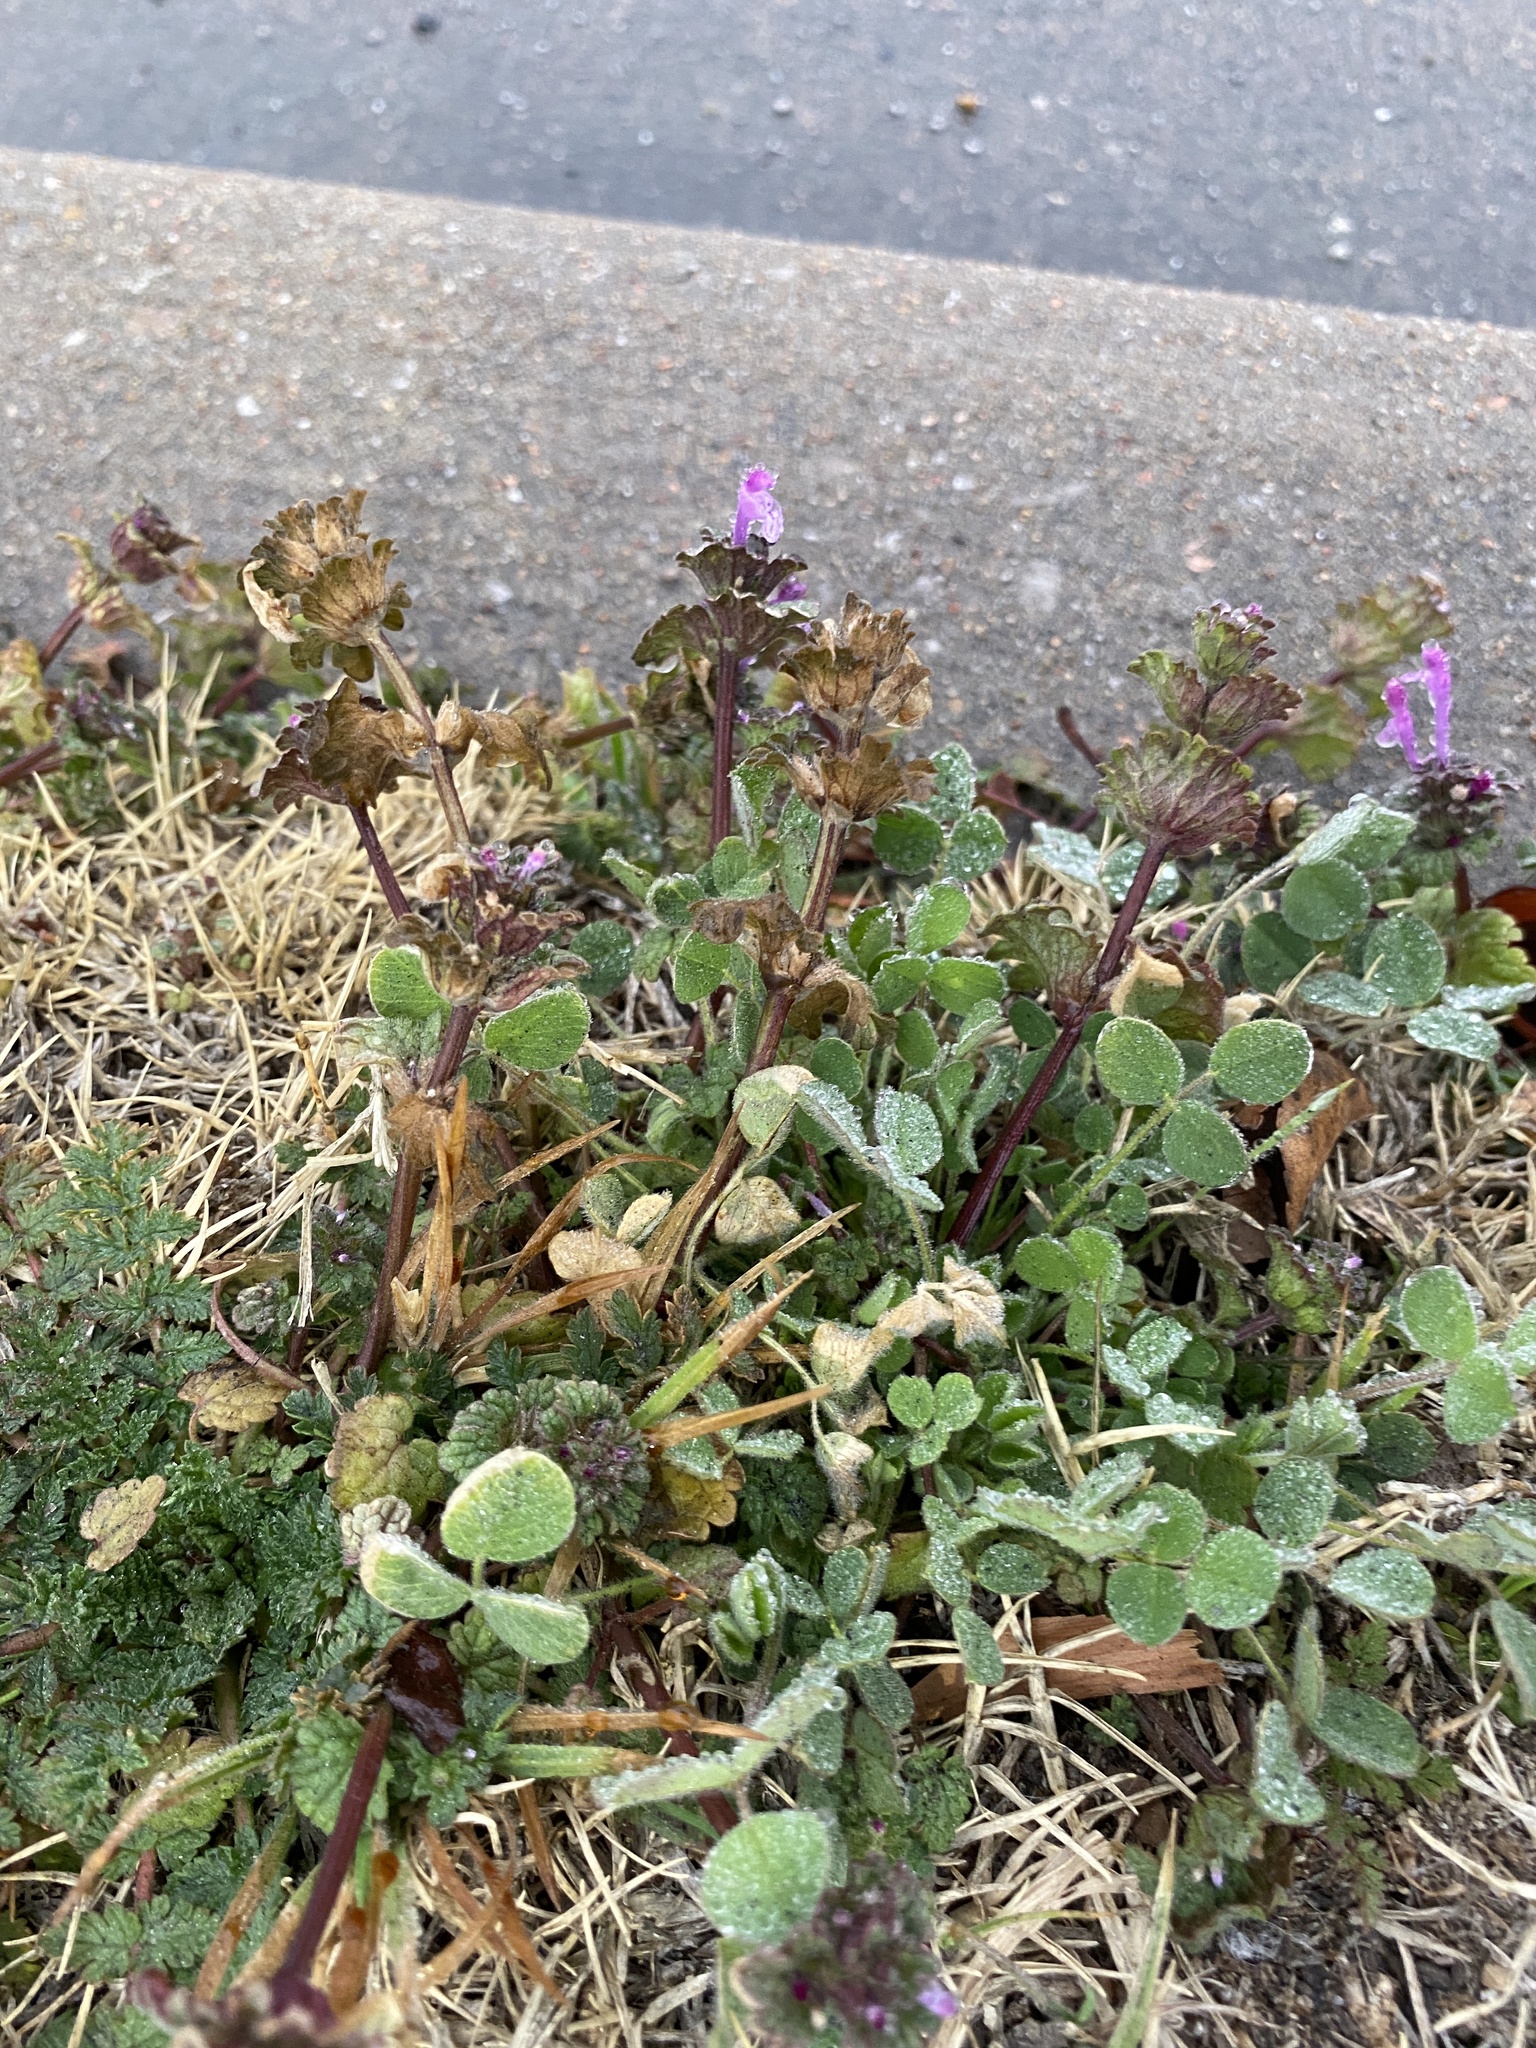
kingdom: Plantae
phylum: Tracheophyta
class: Magnoliopsida
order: Lamiales
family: Lamiaceae
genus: Lamium
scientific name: Lamium amplexicaule
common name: Henbit dead-nettle
